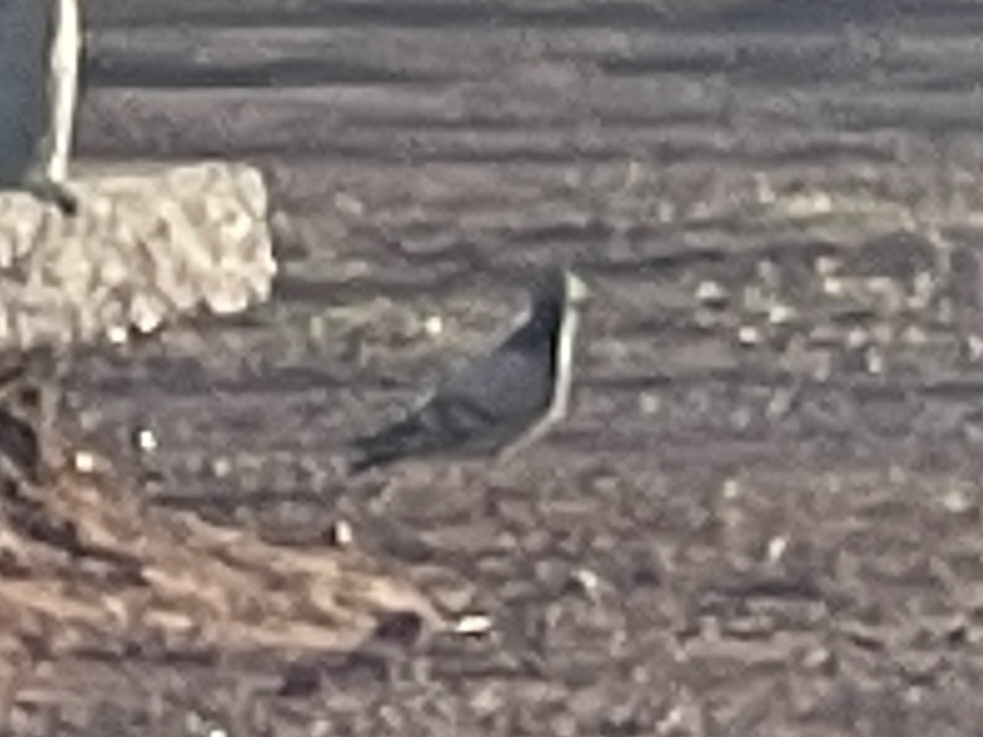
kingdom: Animalia
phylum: Chordata
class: Aves
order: Columbiformes
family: Columbidae
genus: Columba
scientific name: Columba livia
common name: Rock pigeon
